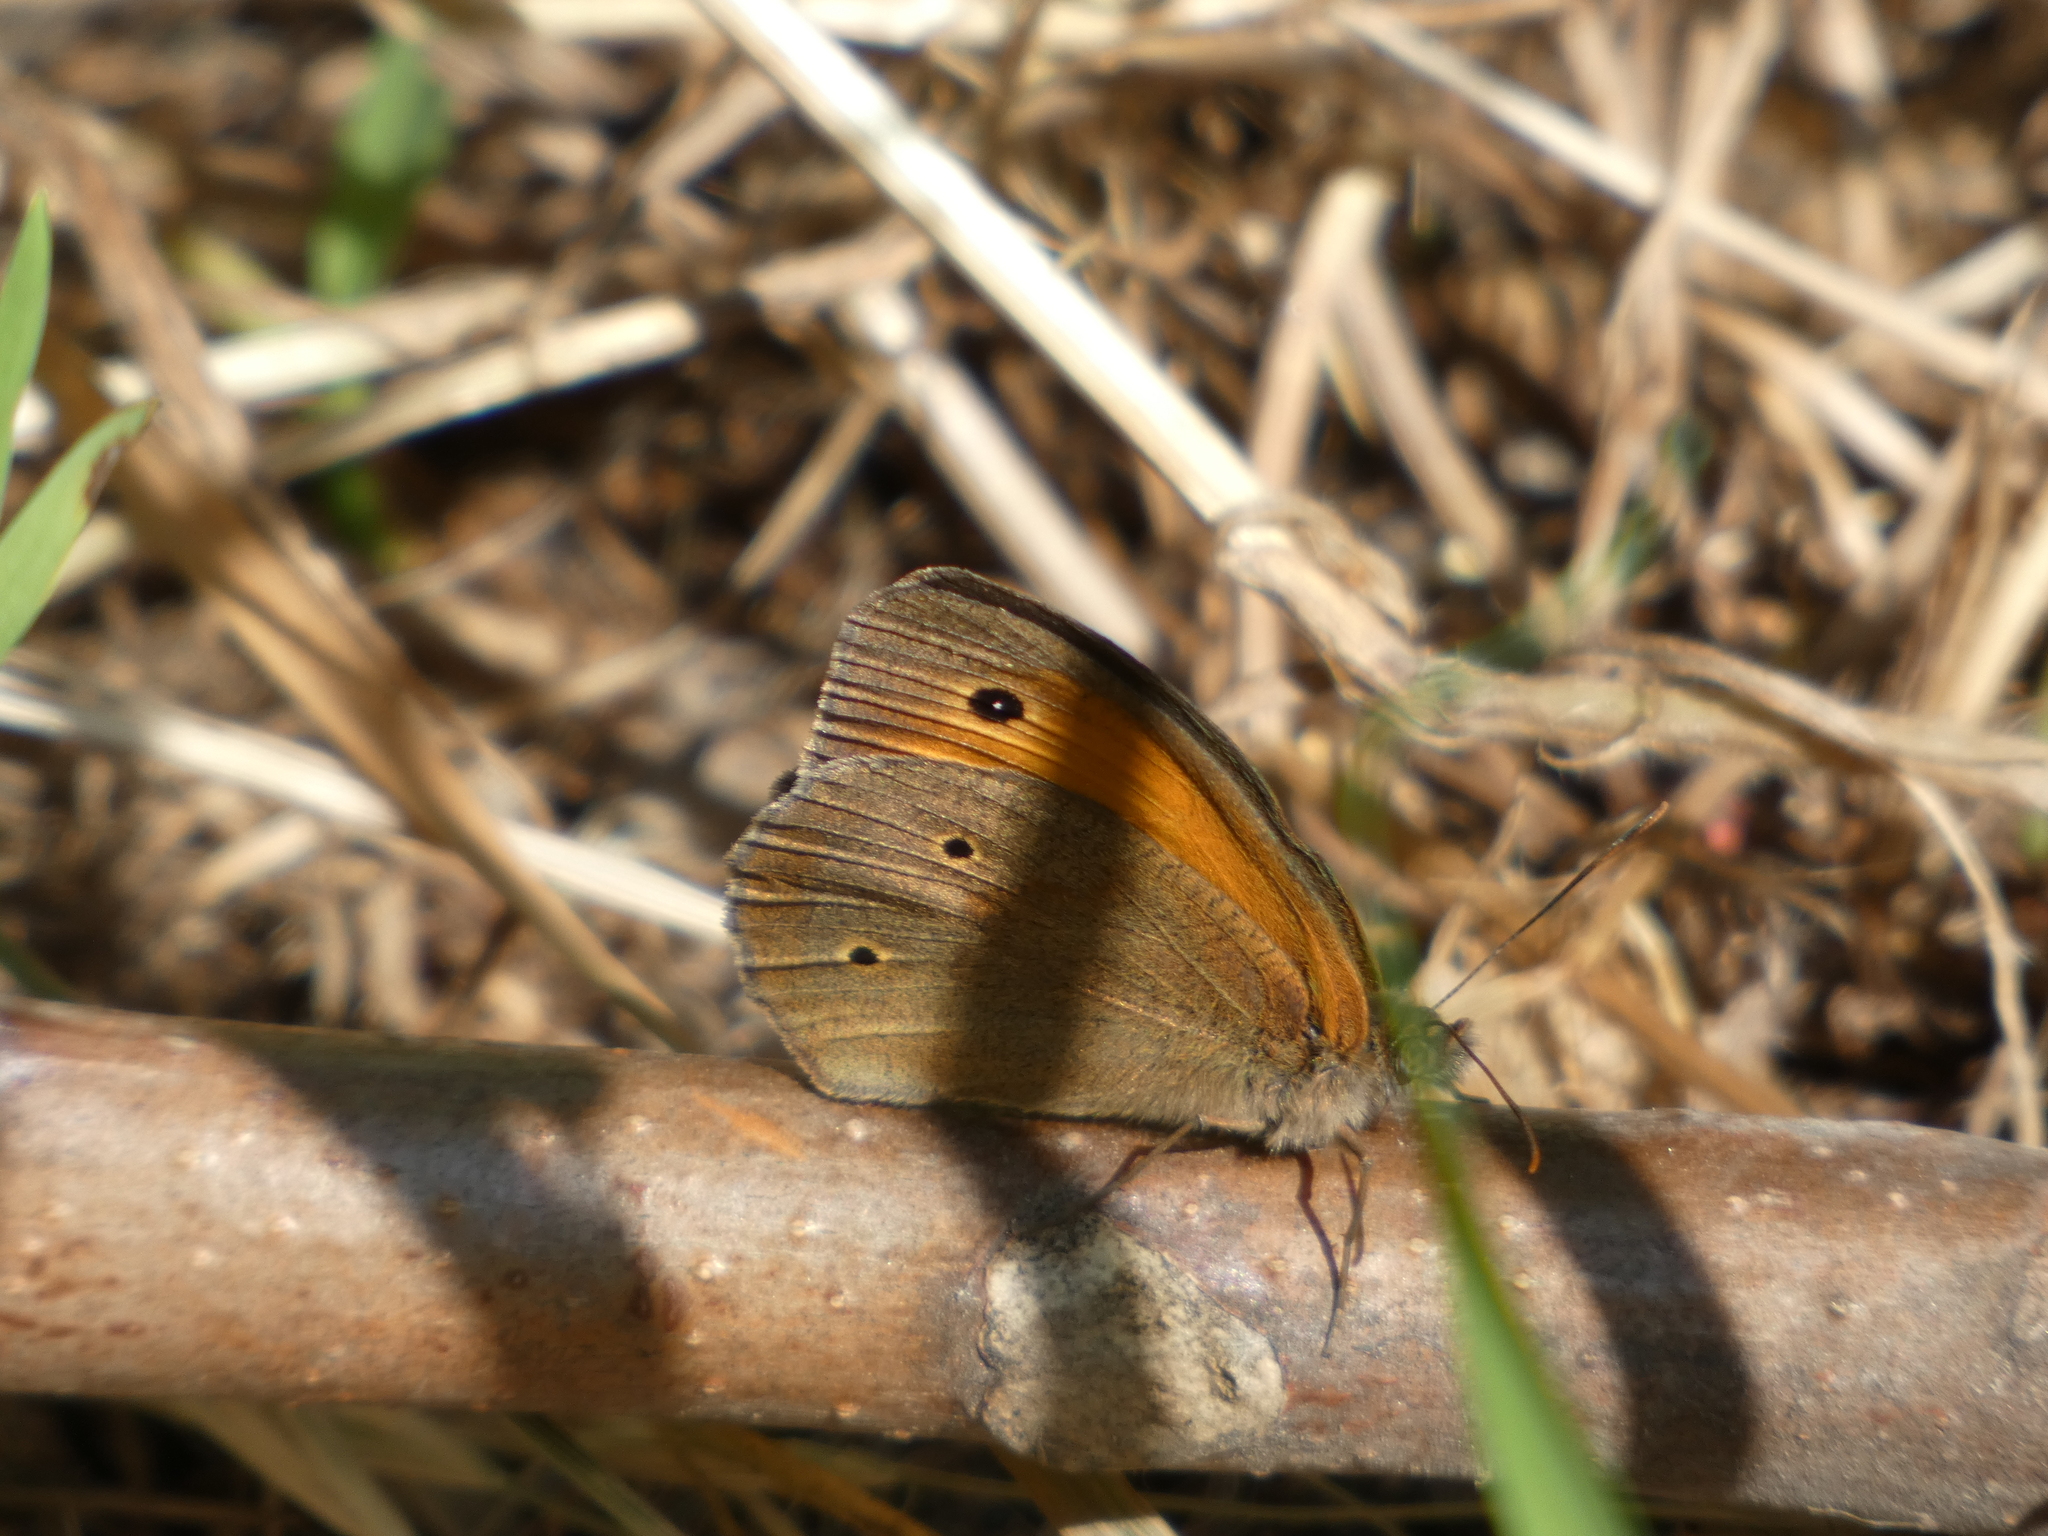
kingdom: Animalia
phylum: Arthropoda
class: Insecta
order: Lepidoptera
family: Nymphalidae
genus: Maniola
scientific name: Maniola jurtina
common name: Meadow brown
